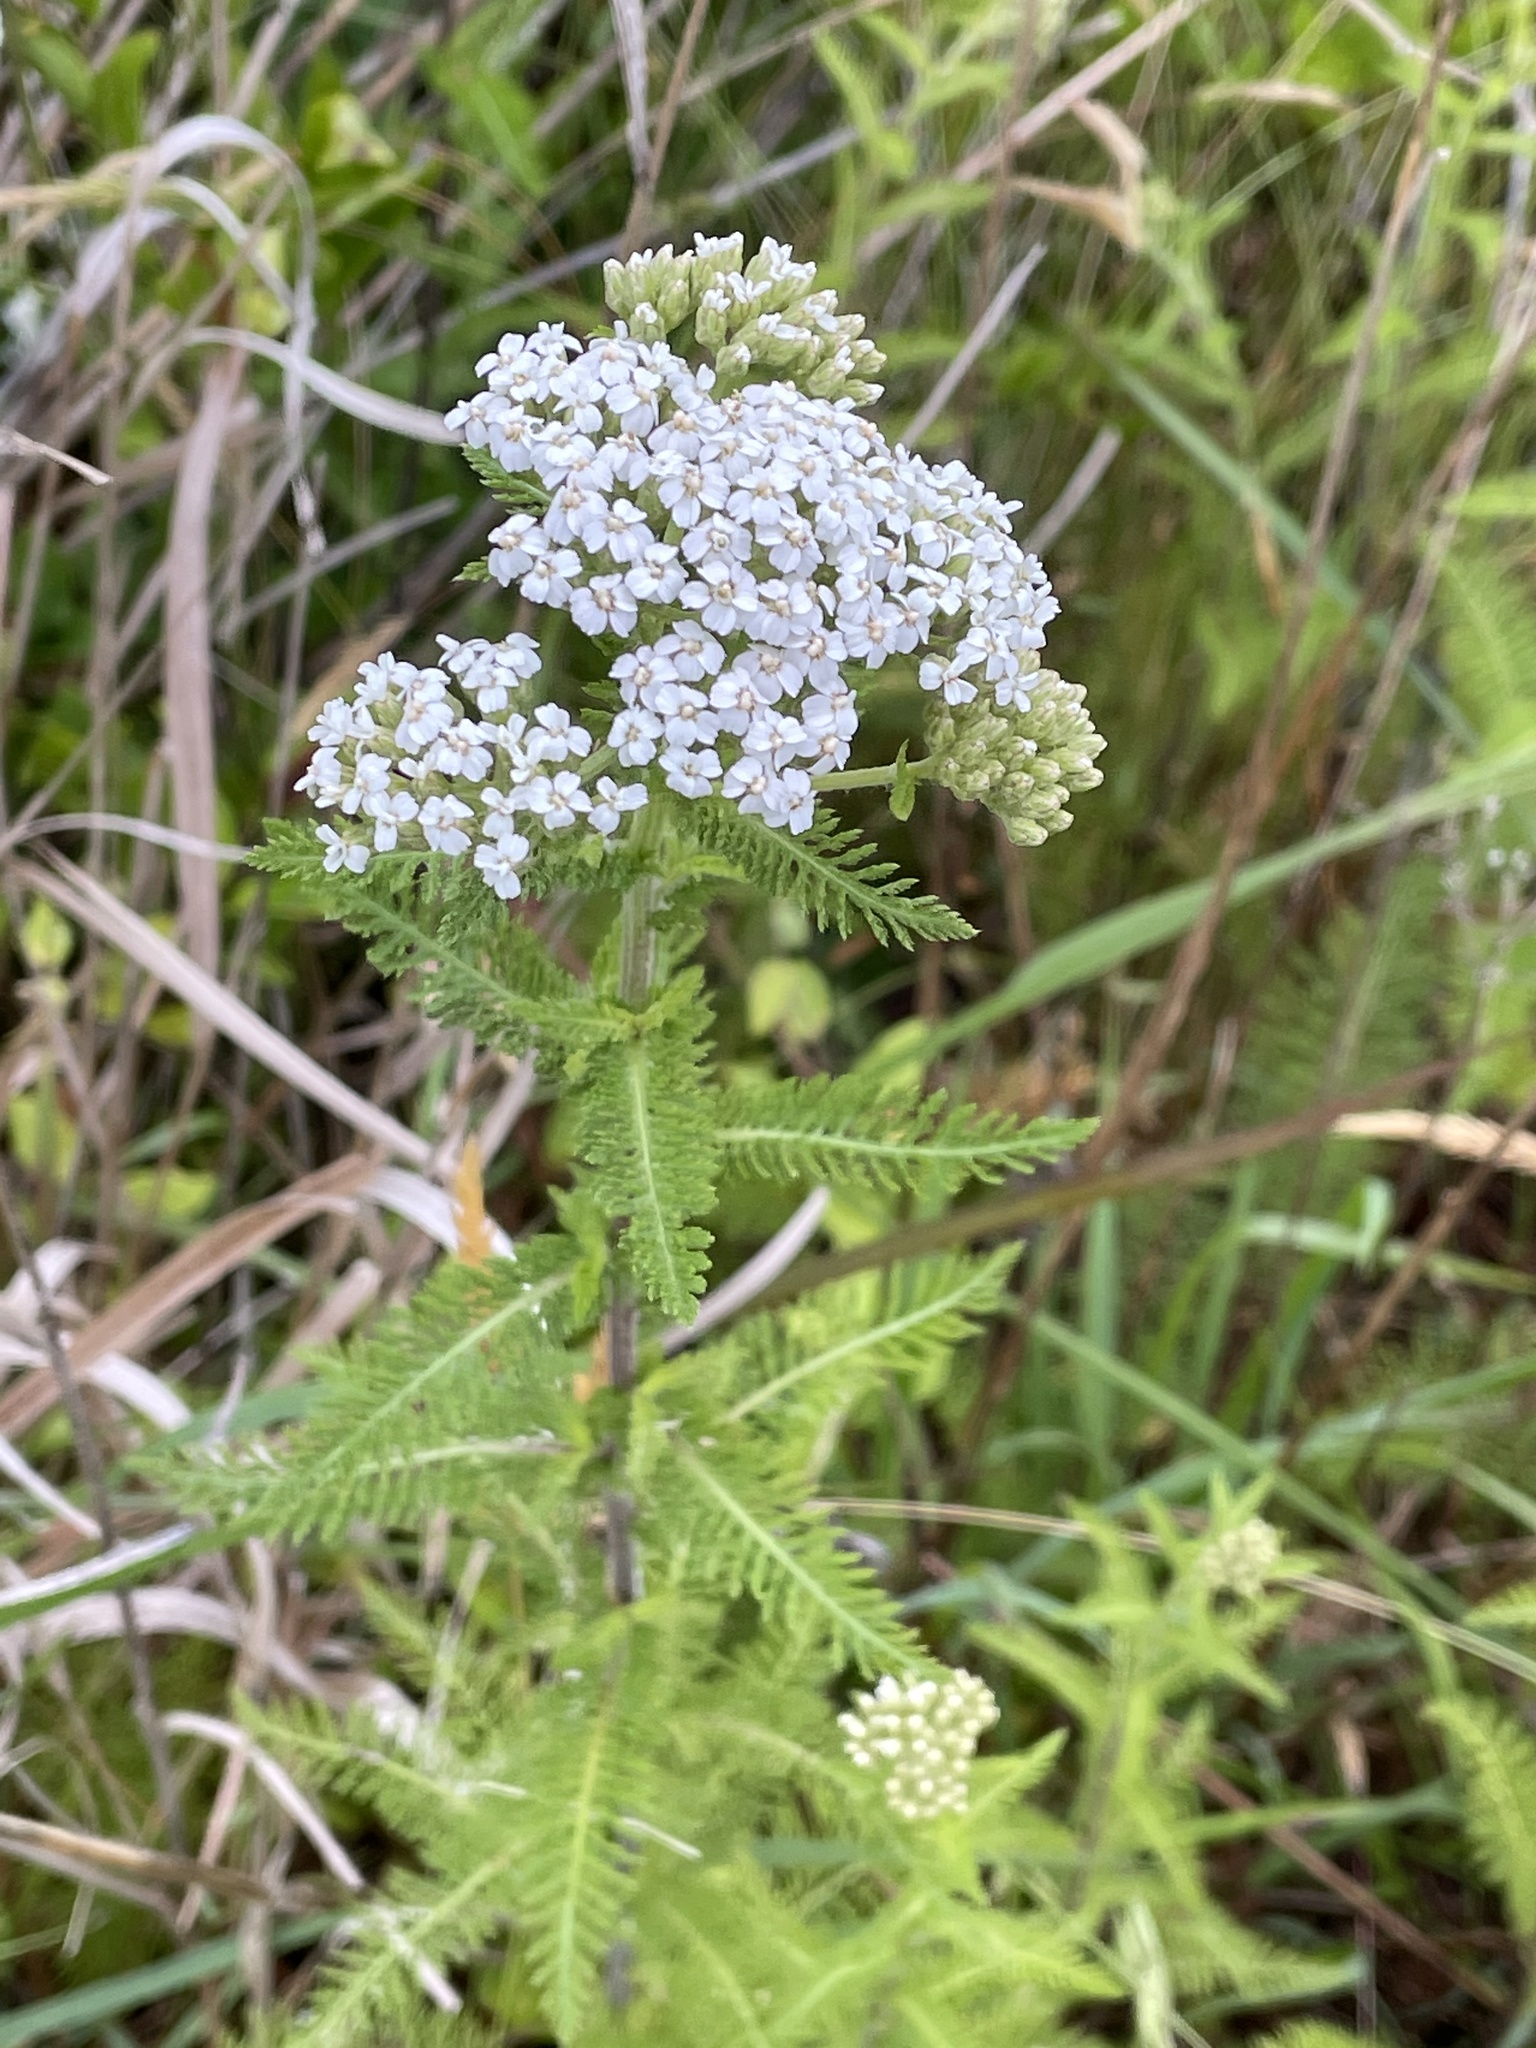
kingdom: Plantae
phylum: Tracheophyta
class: Magnoliopsida
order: Asterales
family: Asteraceae
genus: Achillea
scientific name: Achillea millefolium
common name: Yarrow
